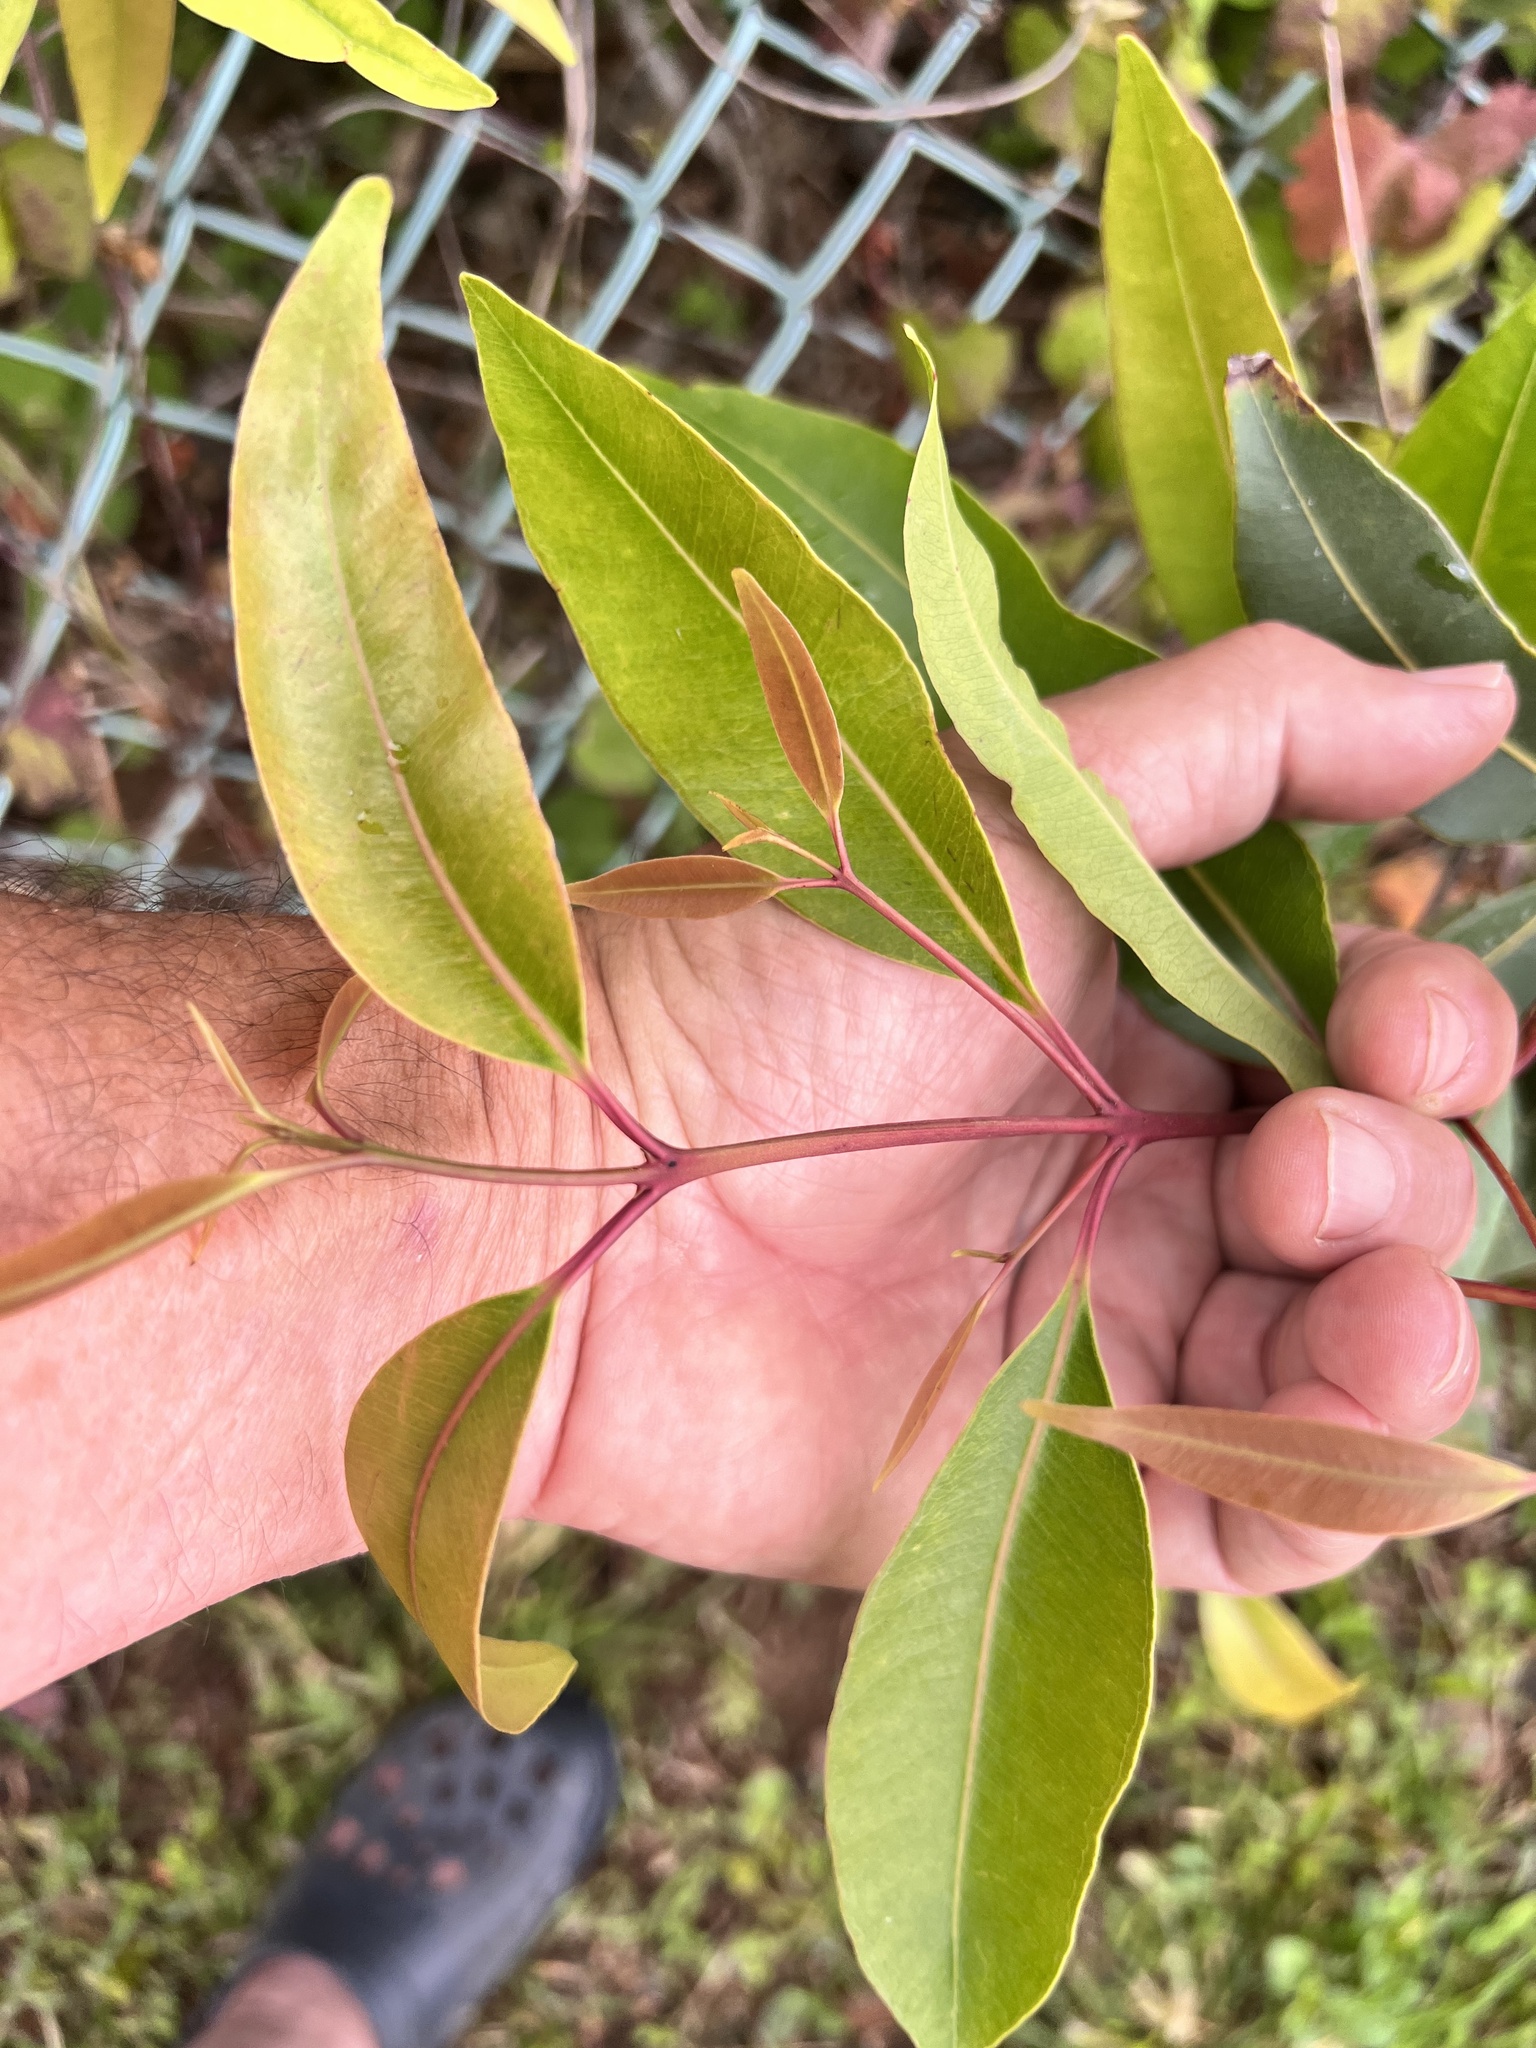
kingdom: Plantae
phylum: Tracheophyta
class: Magnoliopsida
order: Myrtales
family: Myrtaceae
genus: Syzygium
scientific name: Syzygium cumini
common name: Java plum
